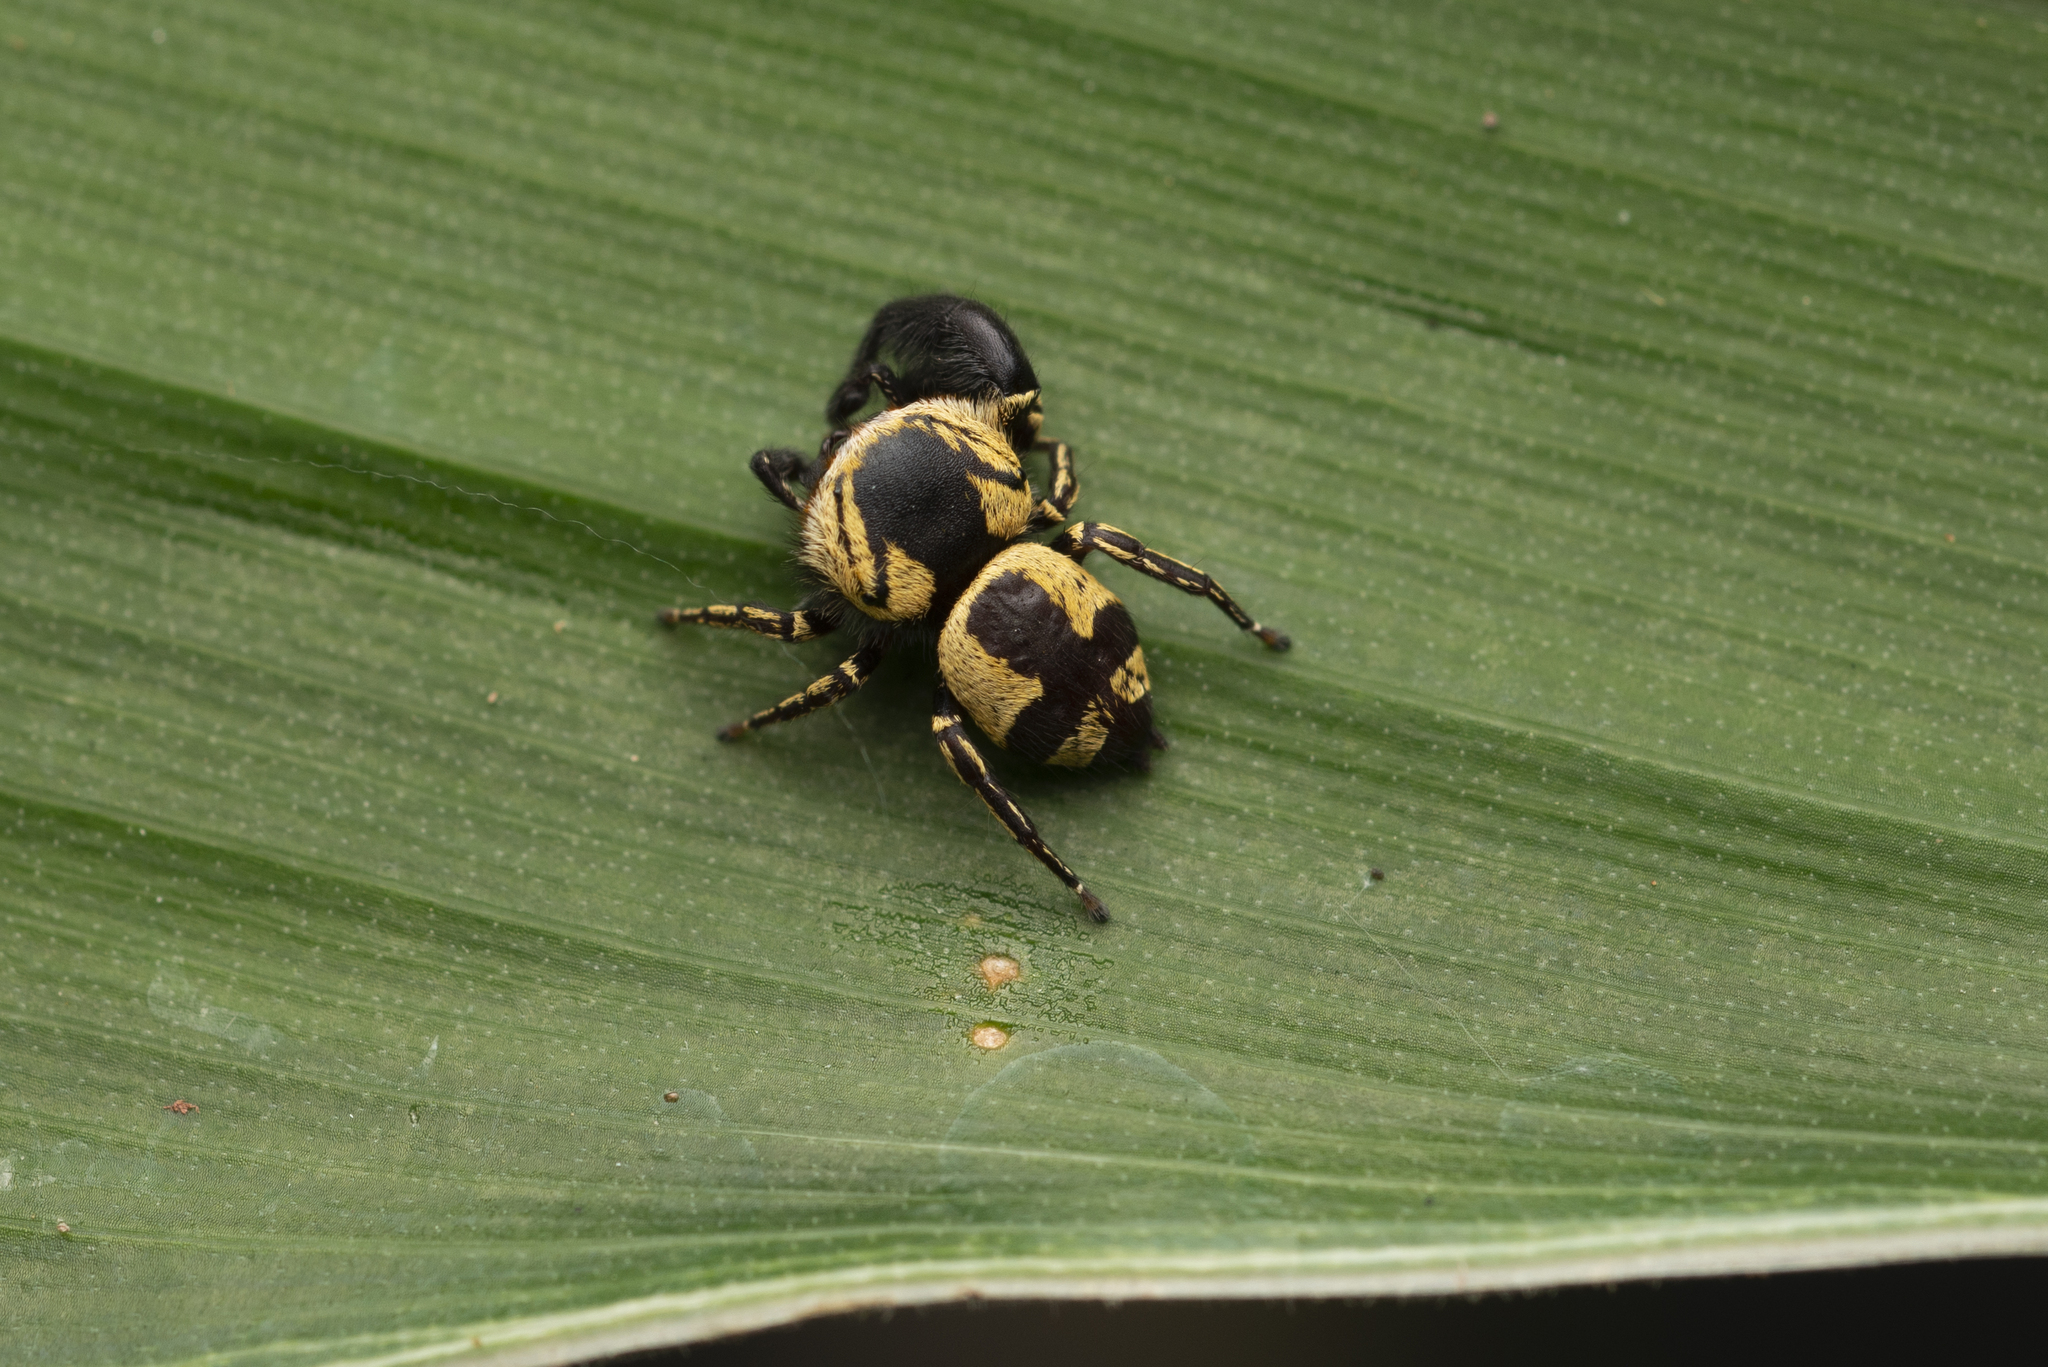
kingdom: Animalia
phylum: Arthropoda
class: Arachnida
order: Araneae
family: Salticidae
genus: Rhene
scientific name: Rhene flavicomans
